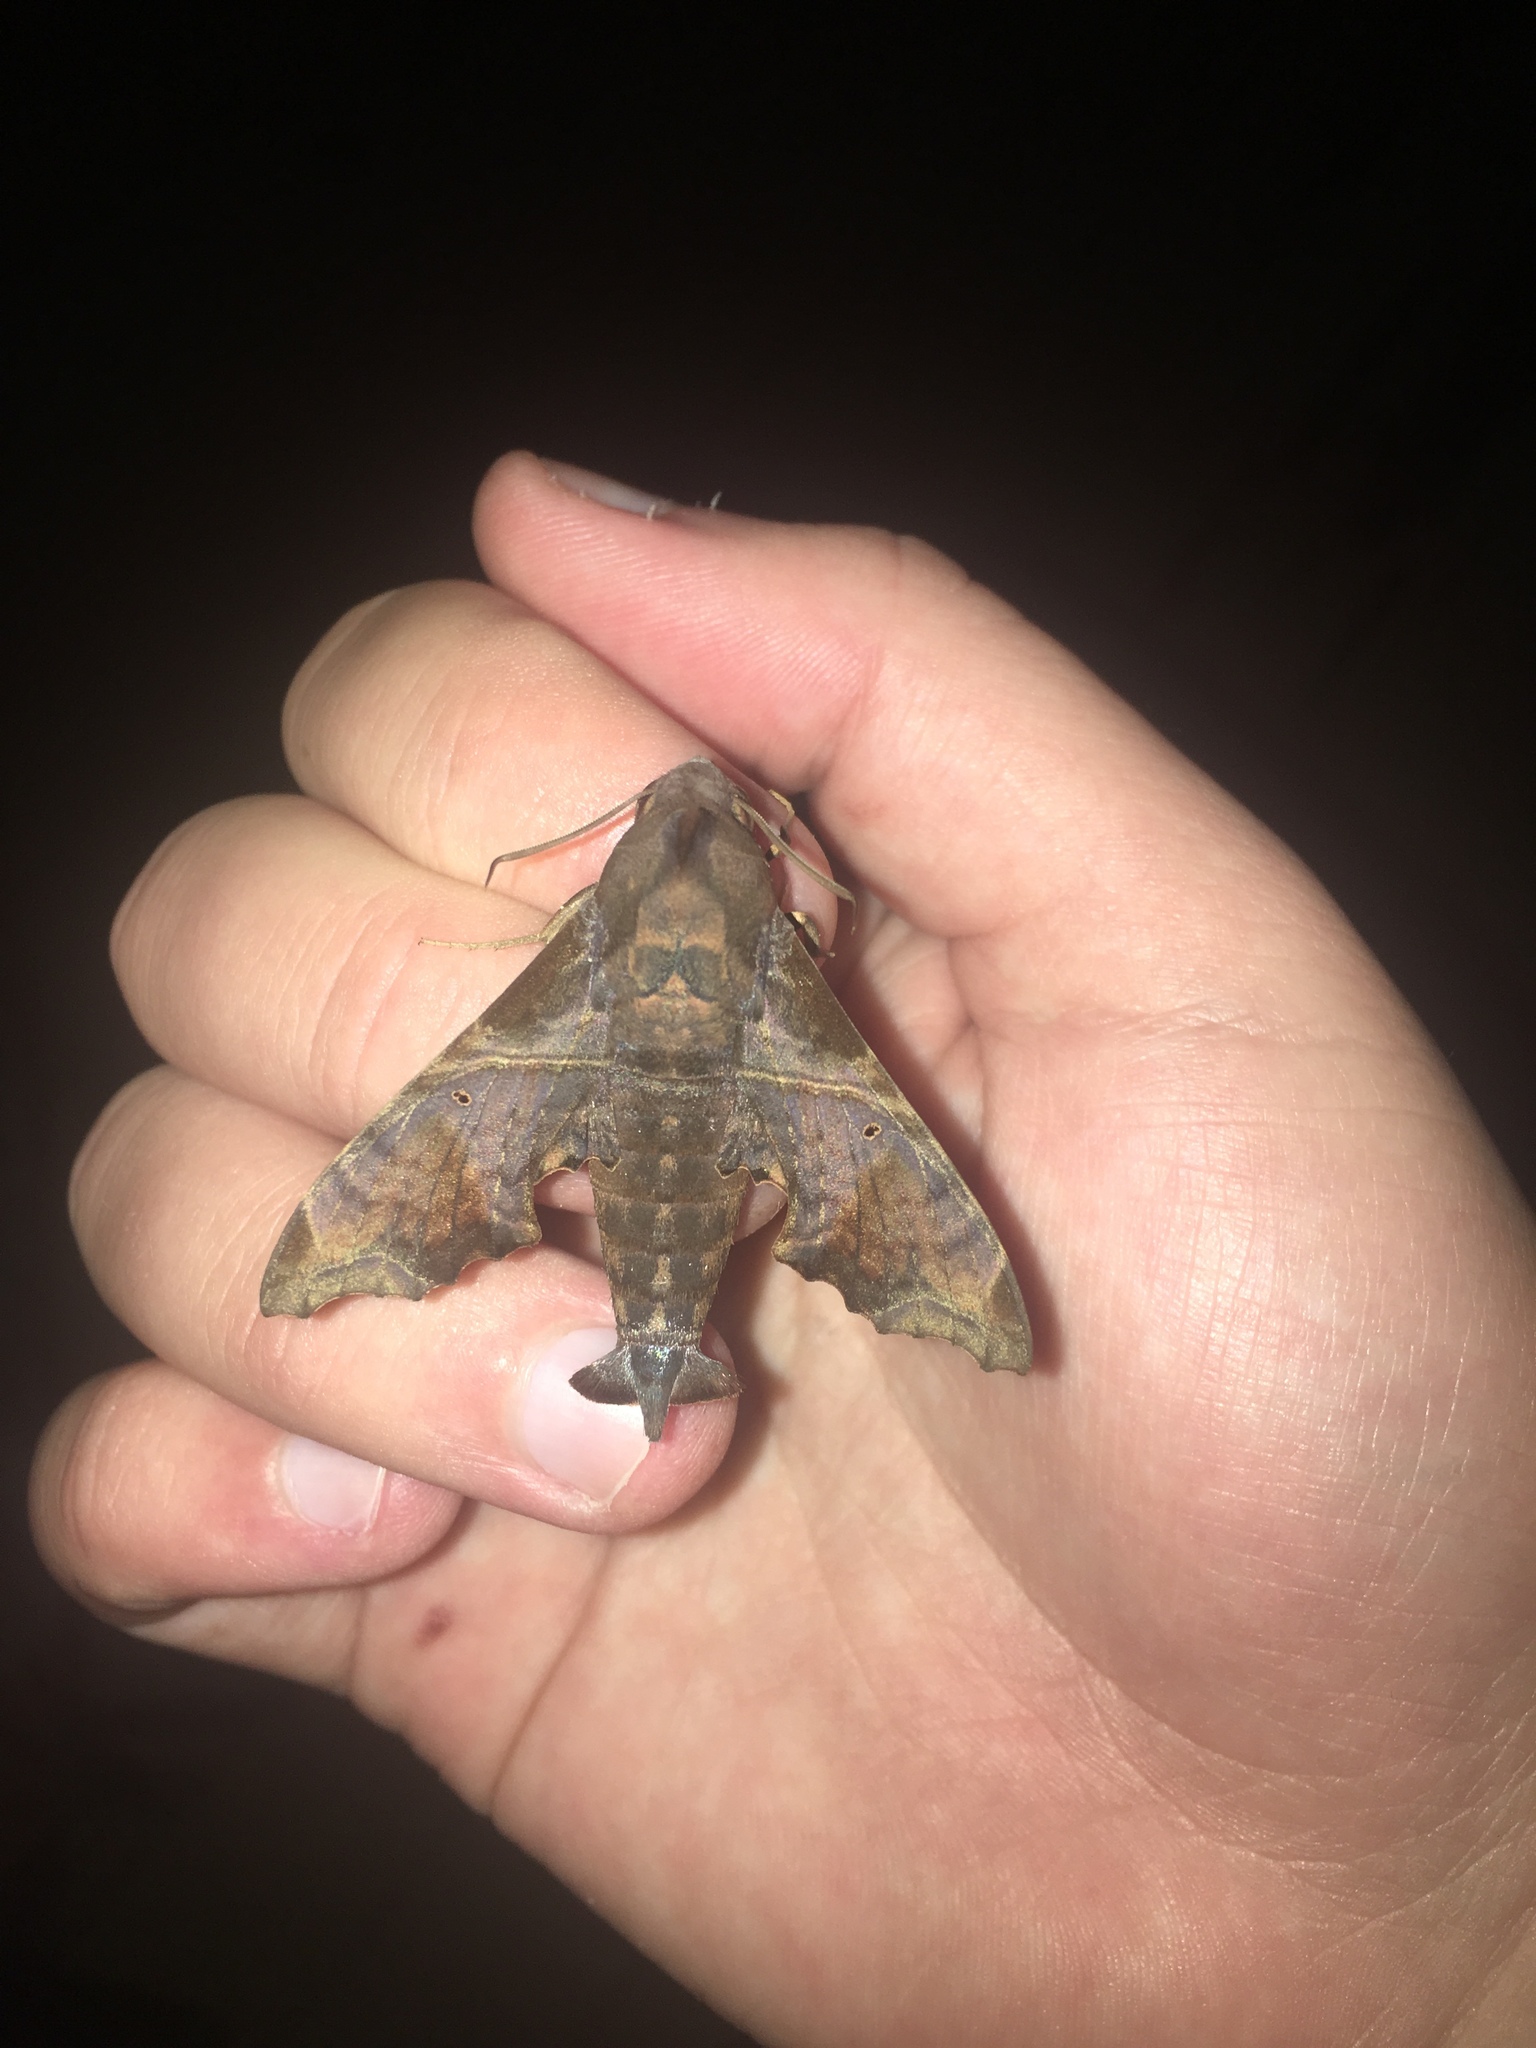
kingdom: Animalia
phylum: Arthropoda
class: Insecta
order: Lepidoptera
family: Sphingidae
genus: Enyo
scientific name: Enyo lugubris
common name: Mournful sphinx
